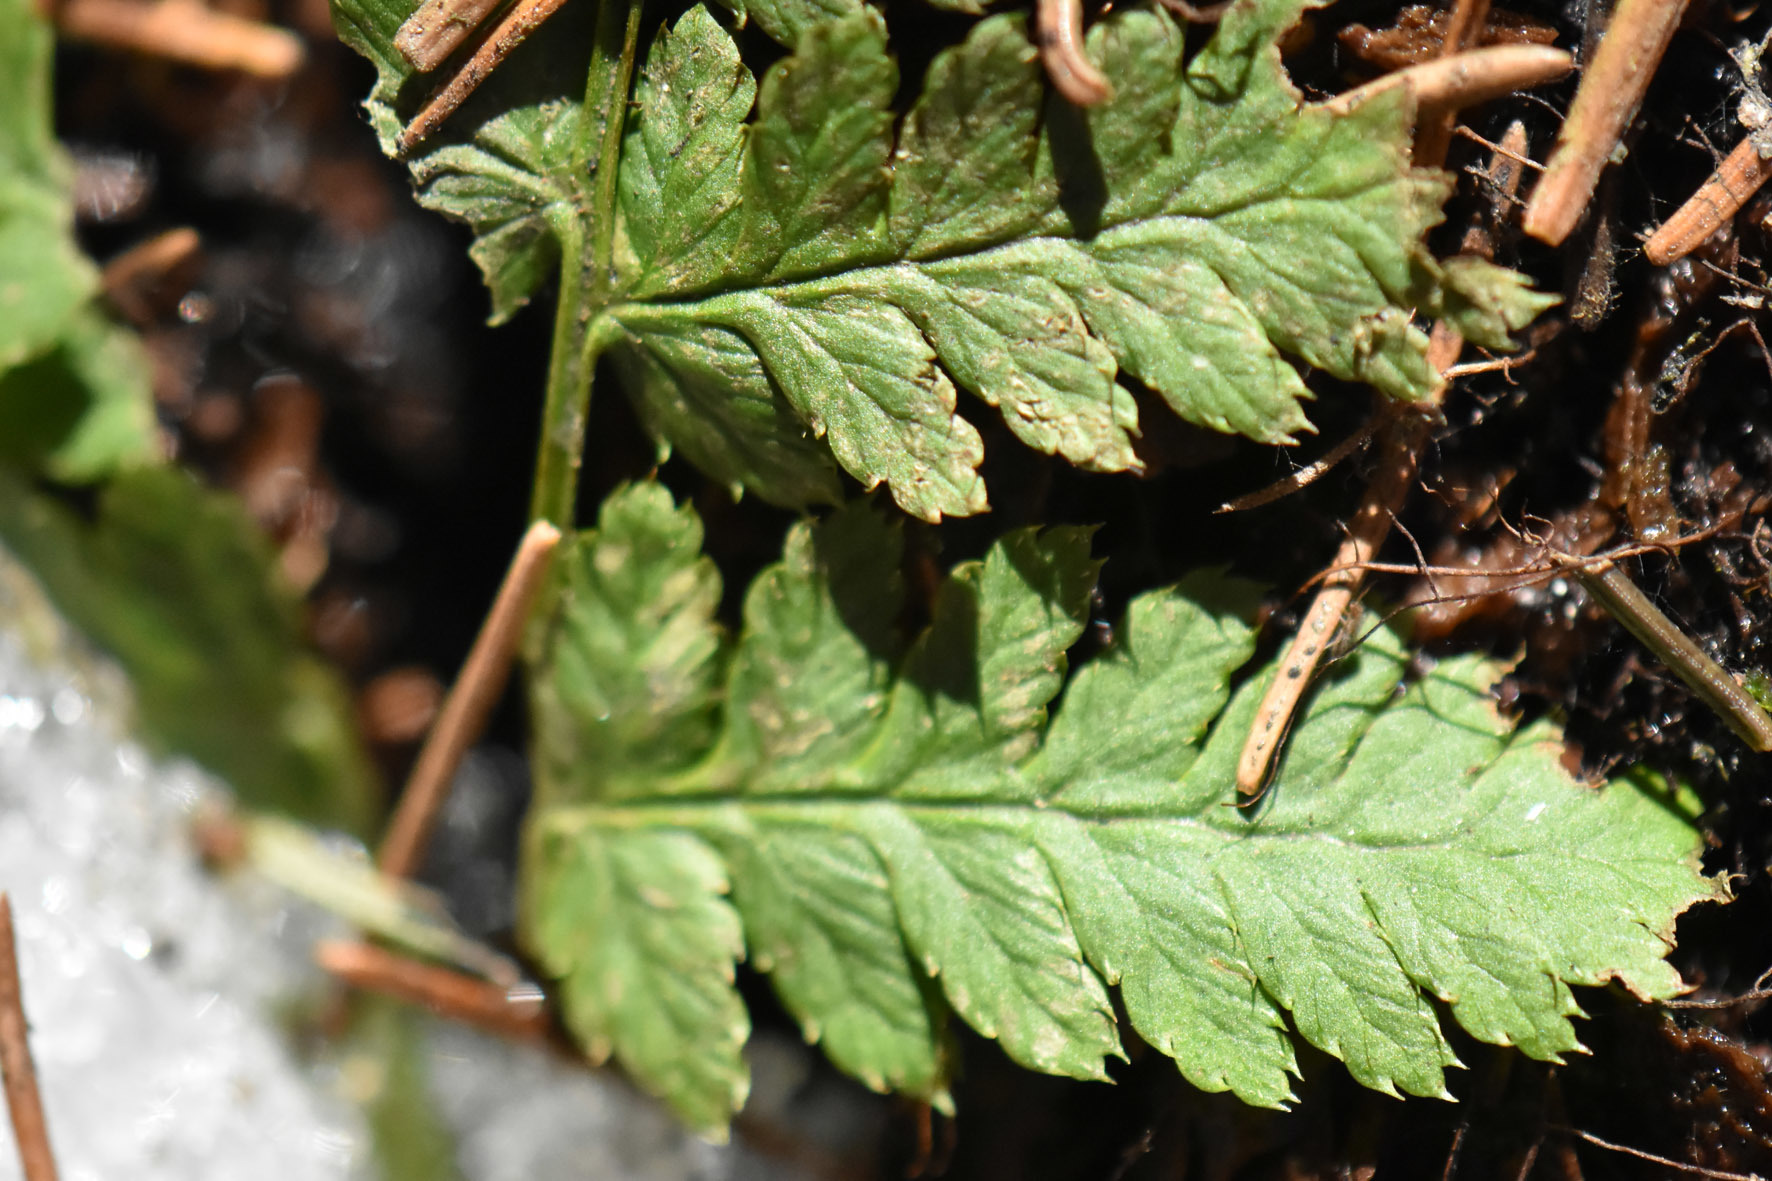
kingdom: Plantae
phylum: Tracheophyta
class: Polypodiopsida
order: Polypodiales
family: Dryopteridaceae
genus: Dryopteris
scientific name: Dryopteris carthusiana
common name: Narrow buckler-fern
